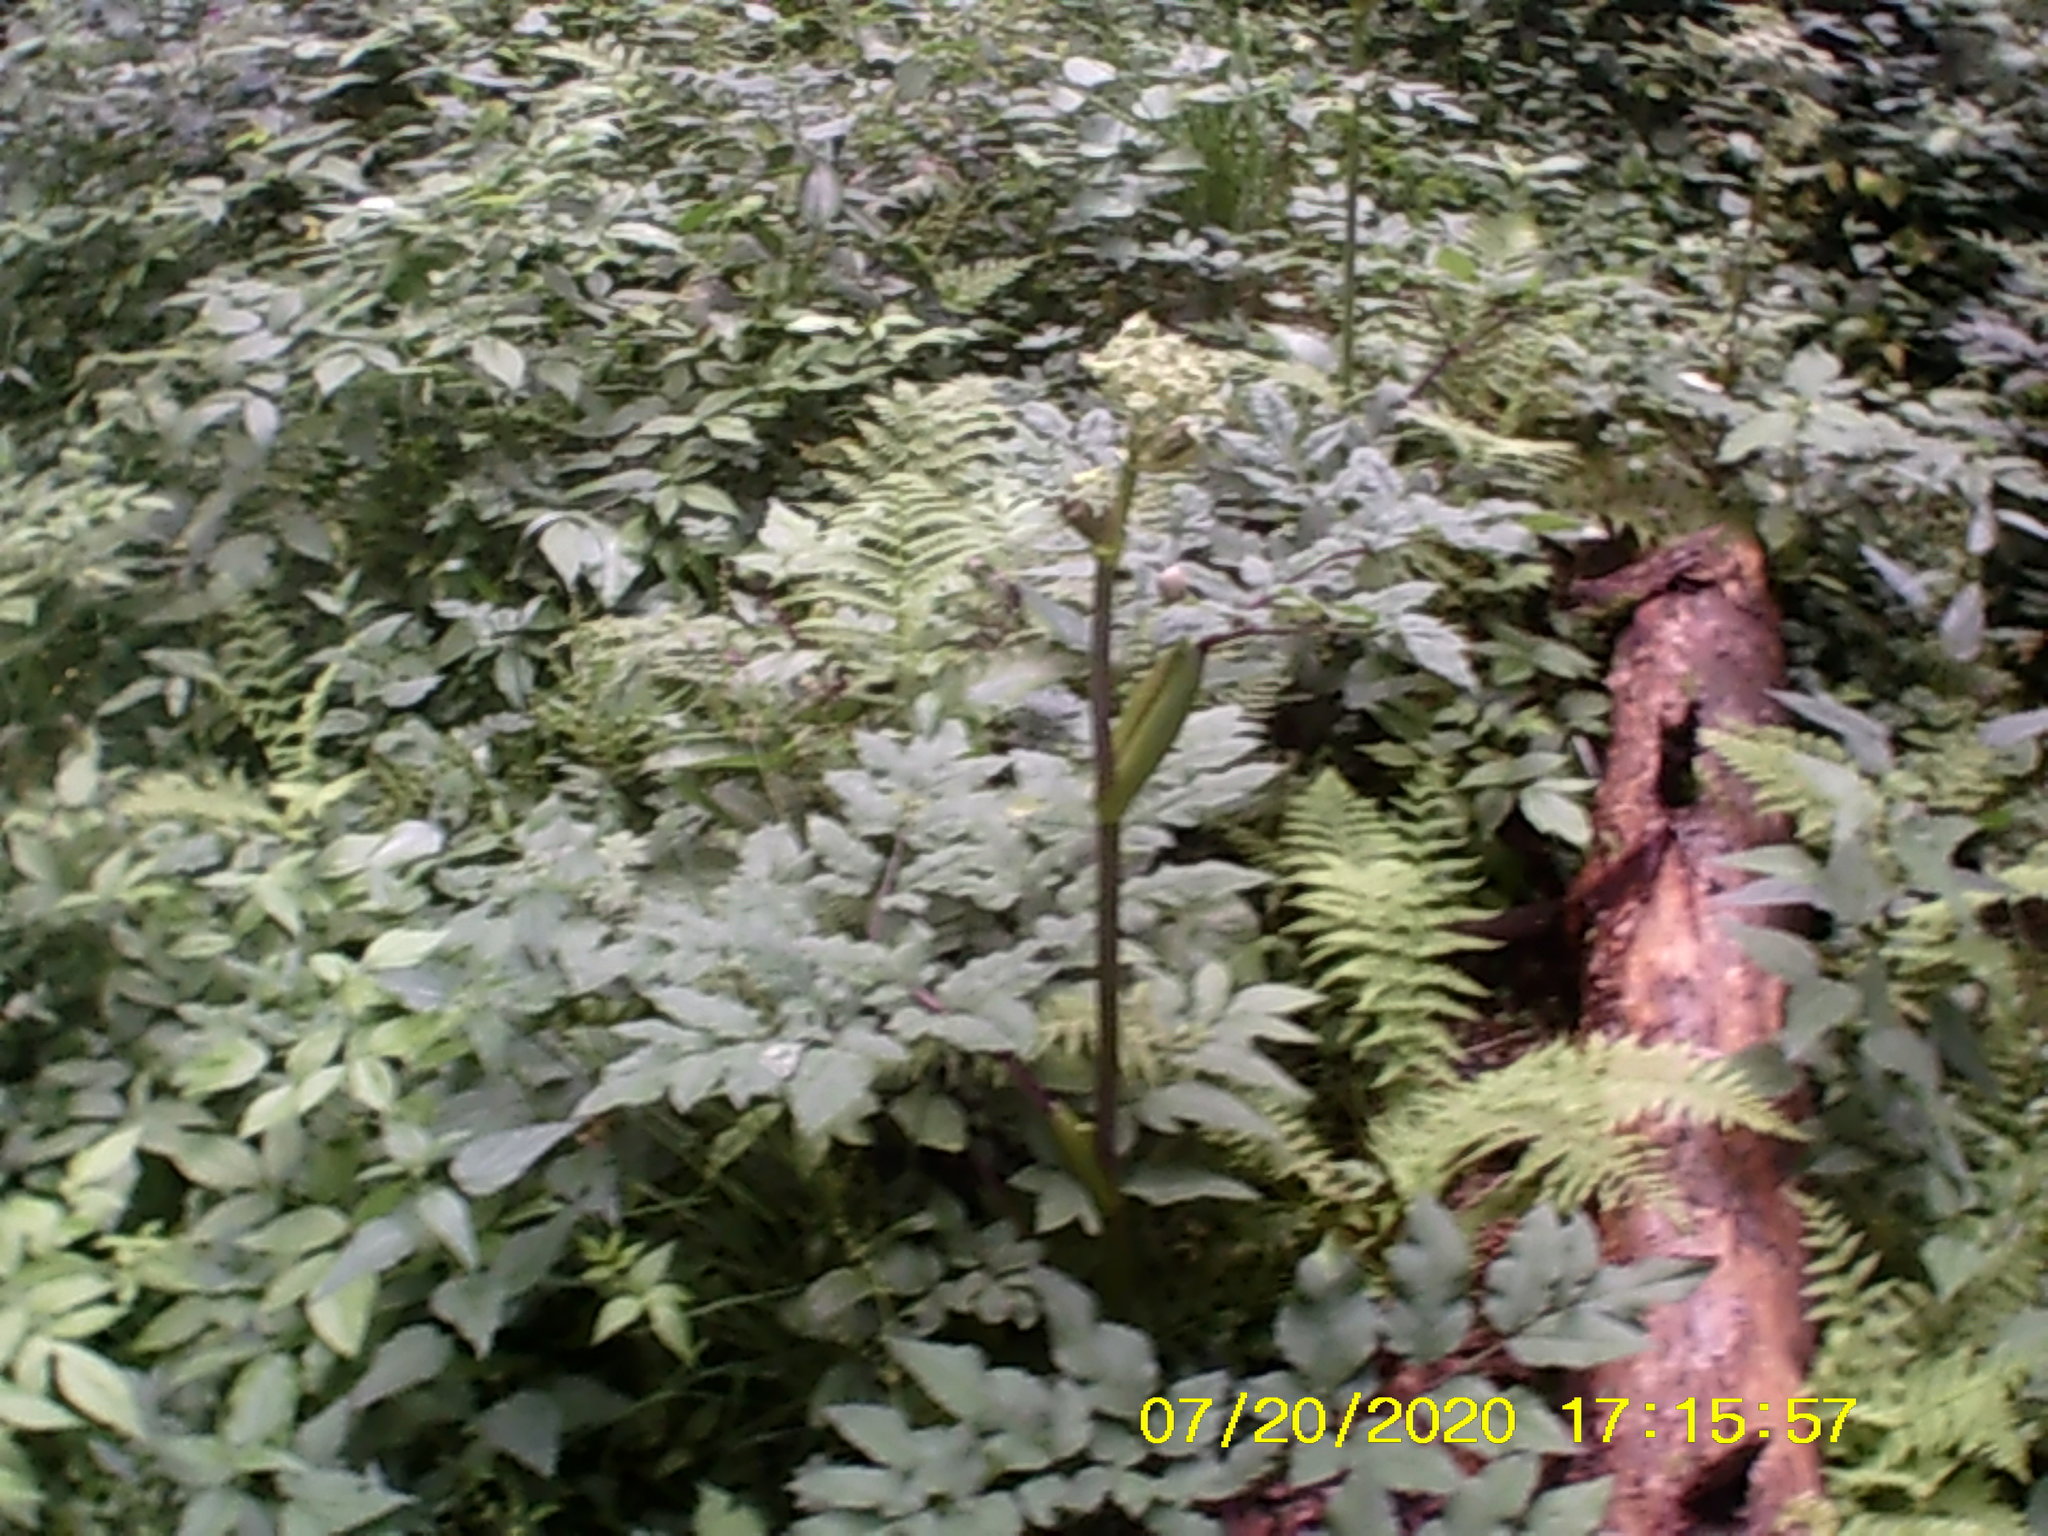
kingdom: Plantae
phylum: Tracheophyta
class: Magnoliopsida
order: Apiales
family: Apiaceae
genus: Angelica
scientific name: Angelica sylvestris
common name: Wild angelica
